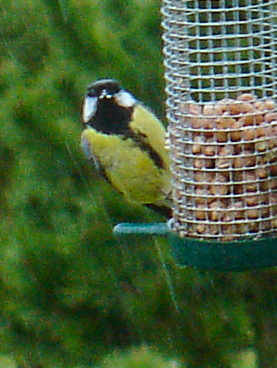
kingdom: Animalia
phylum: Chordata
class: Aves
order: Passeriformes
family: Paridae
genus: Parus
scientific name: Parus major
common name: Great tit
